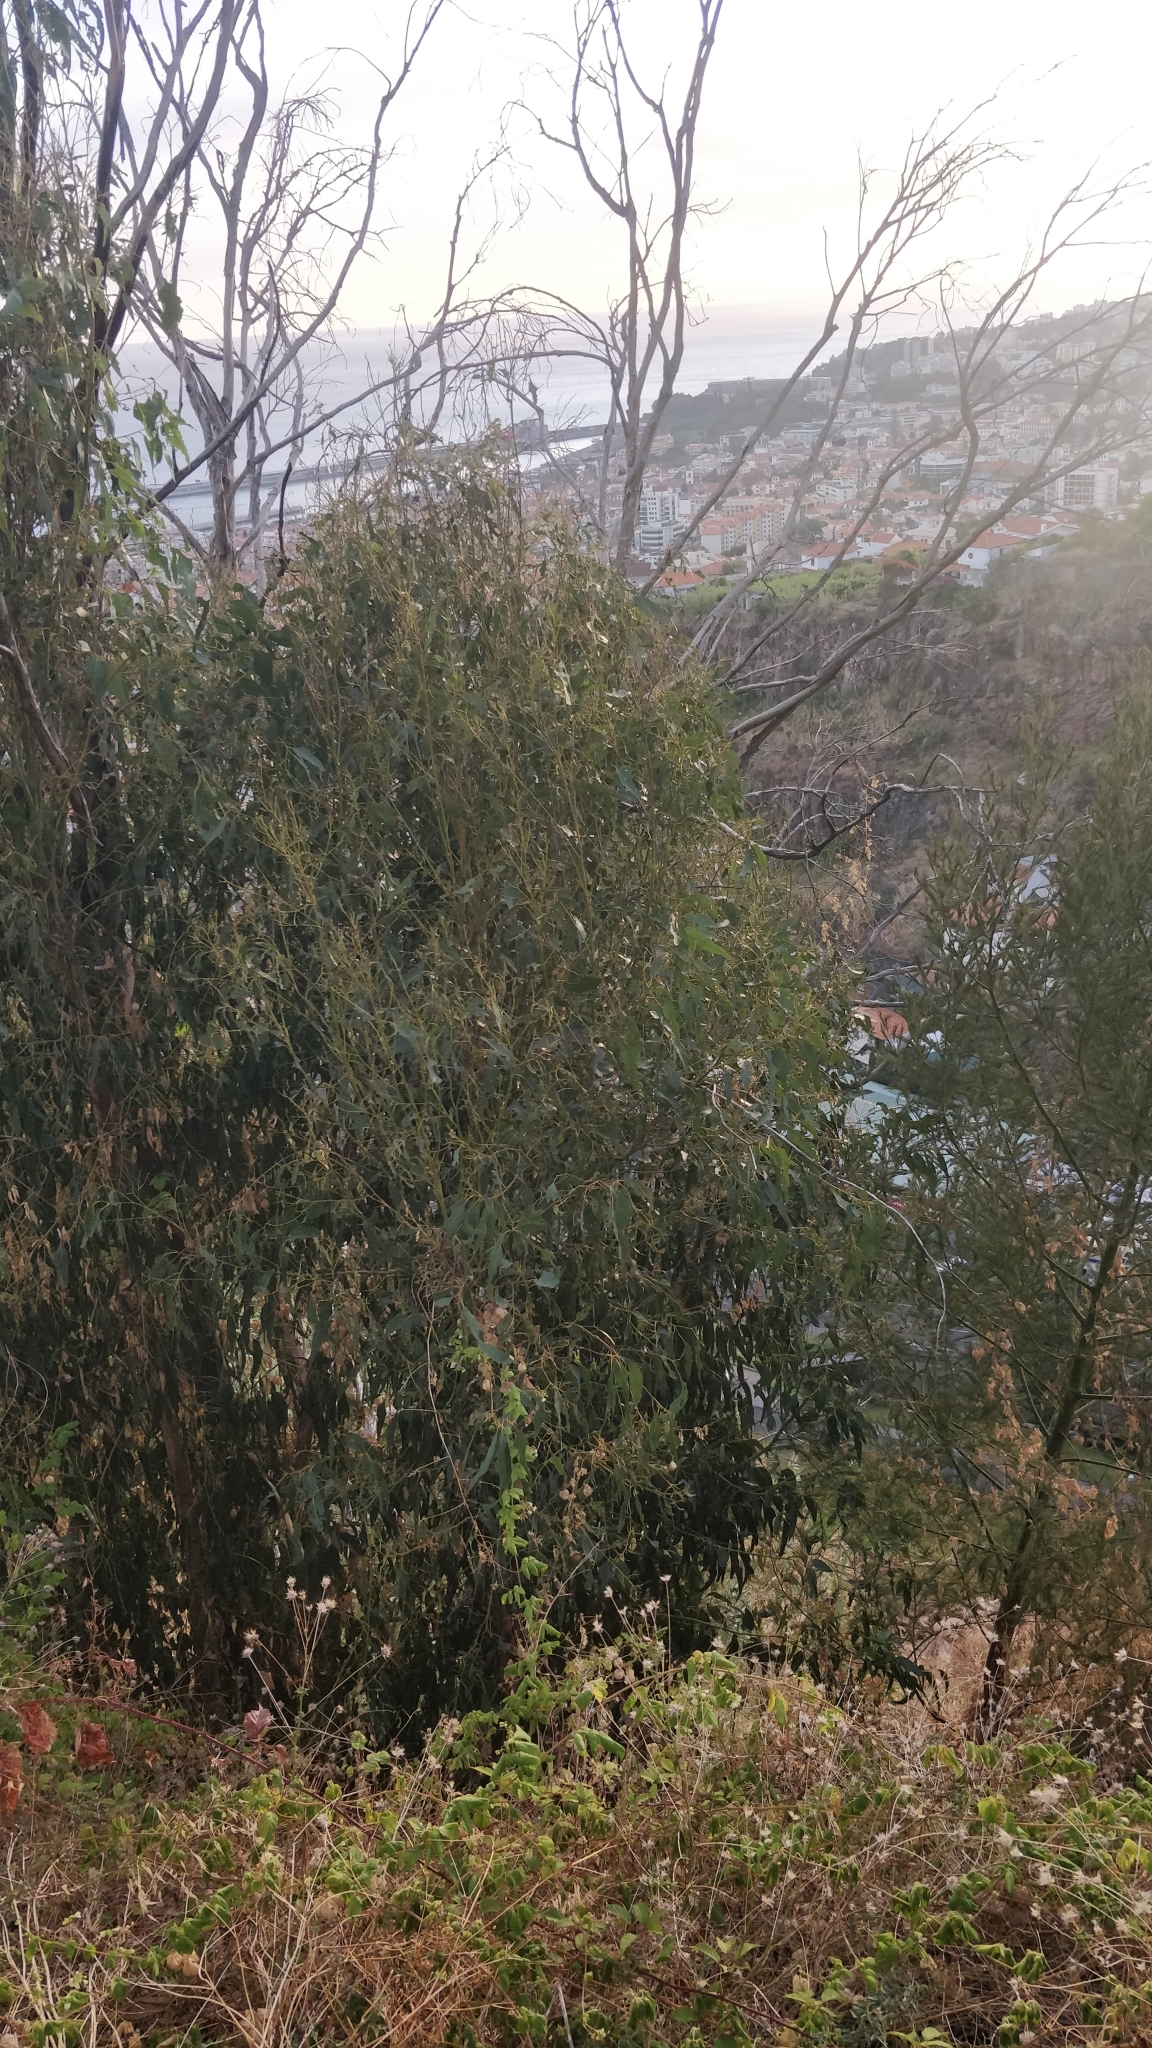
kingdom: Plantae
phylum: Tracheophyta
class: Magnoliopsida
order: Myrtales
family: Myrtaceae
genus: Eucalyptus
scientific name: Eucalyptus globulus
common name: Southern blue-gum
